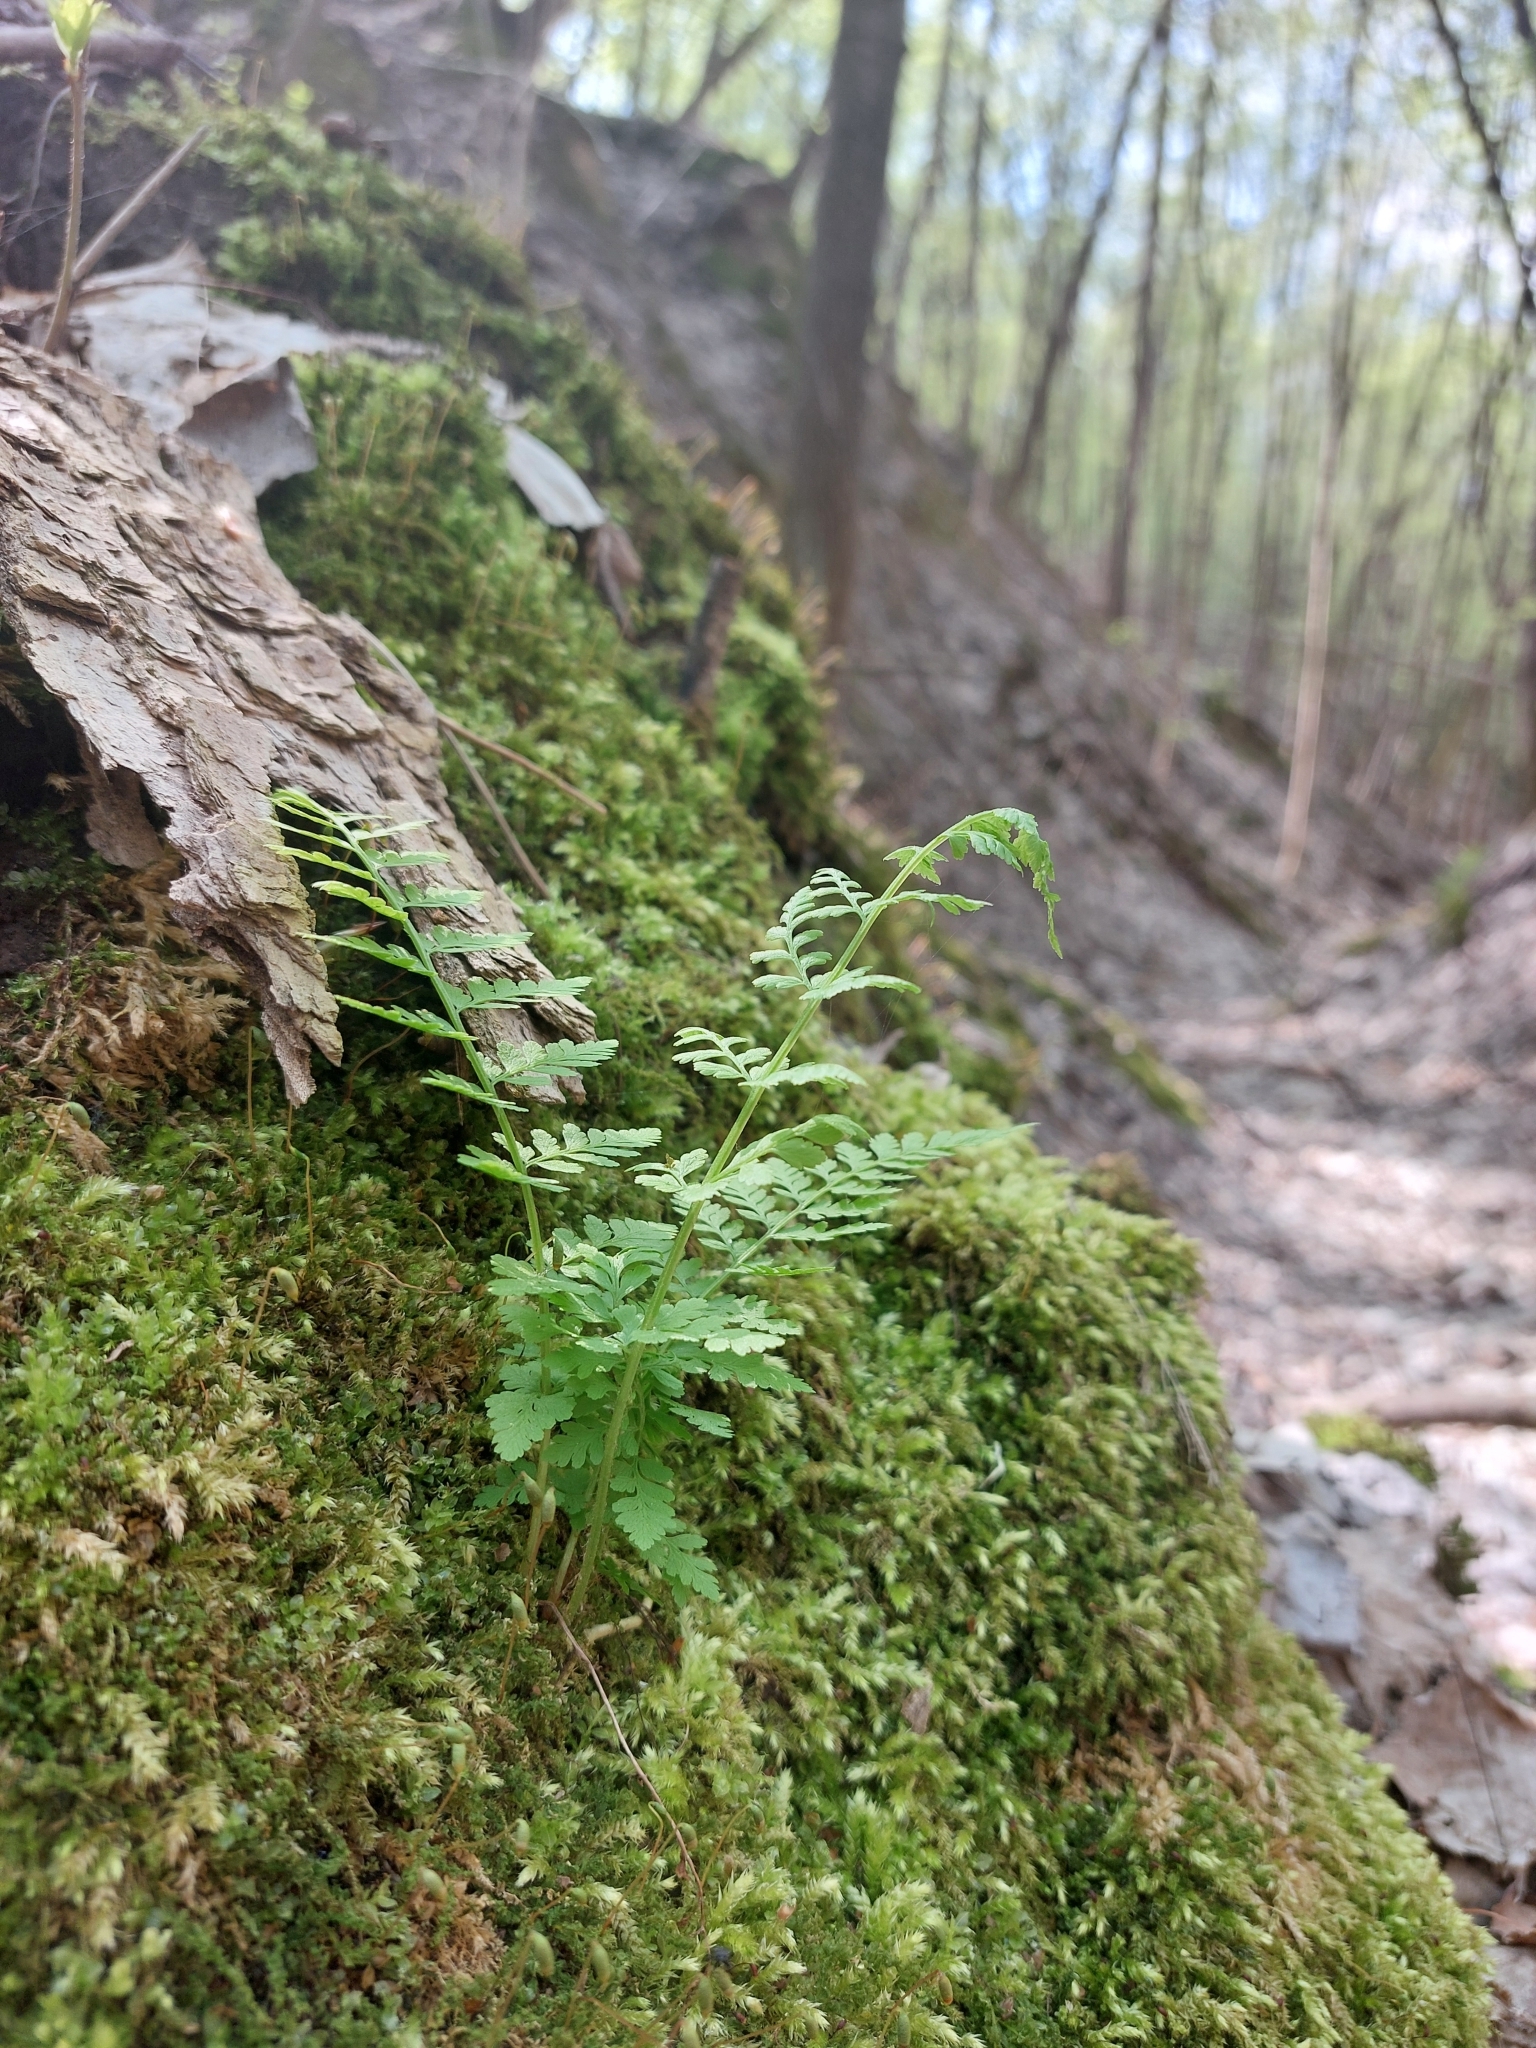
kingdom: Plantae
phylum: Tracheophyta
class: Polypodiopsida
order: Polypodiales
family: Cystopteridaceae
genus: Cystopteris
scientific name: Cystopteris fragilis
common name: Brittle bladder fern
